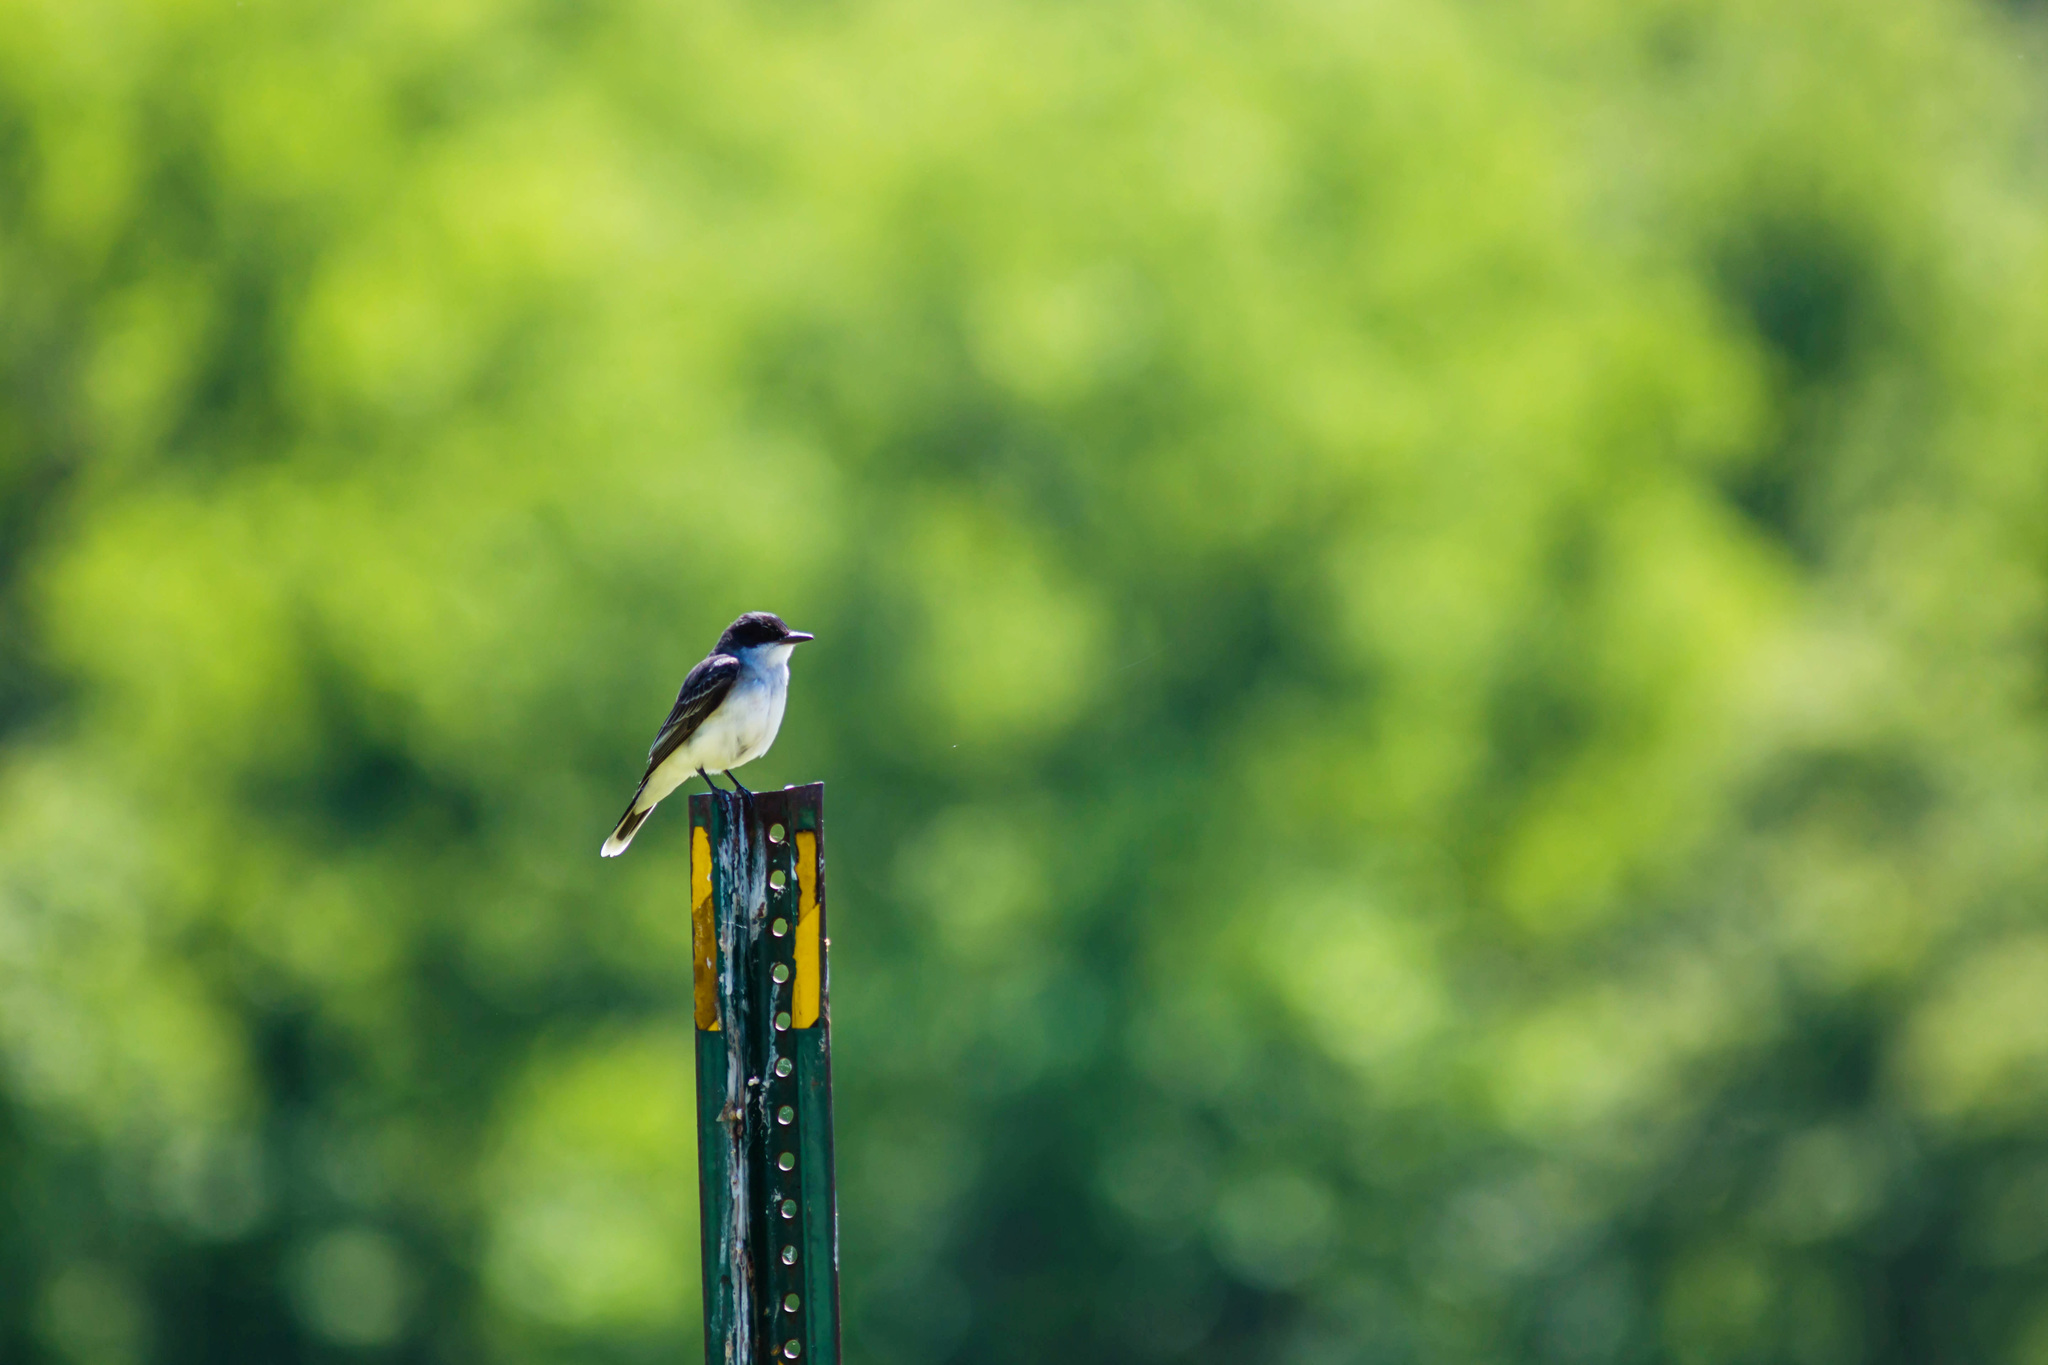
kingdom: Animalia
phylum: Chordata
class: Aves
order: Passeriformes
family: Tyrannidae
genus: Tyrannus
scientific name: Tyrannus tyrannus
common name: Eastern kingbird
